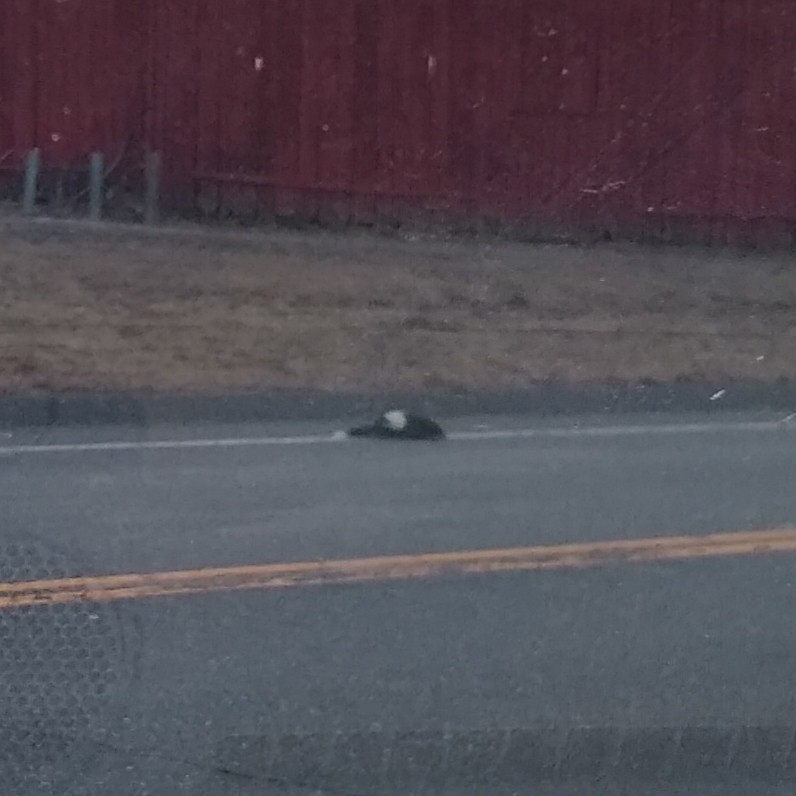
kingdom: Animalia
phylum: Chordata
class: Mammalia
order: Carnivora
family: Mephitidae
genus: Mephitis
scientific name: Mephitis mephitis
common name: Striped skunk
